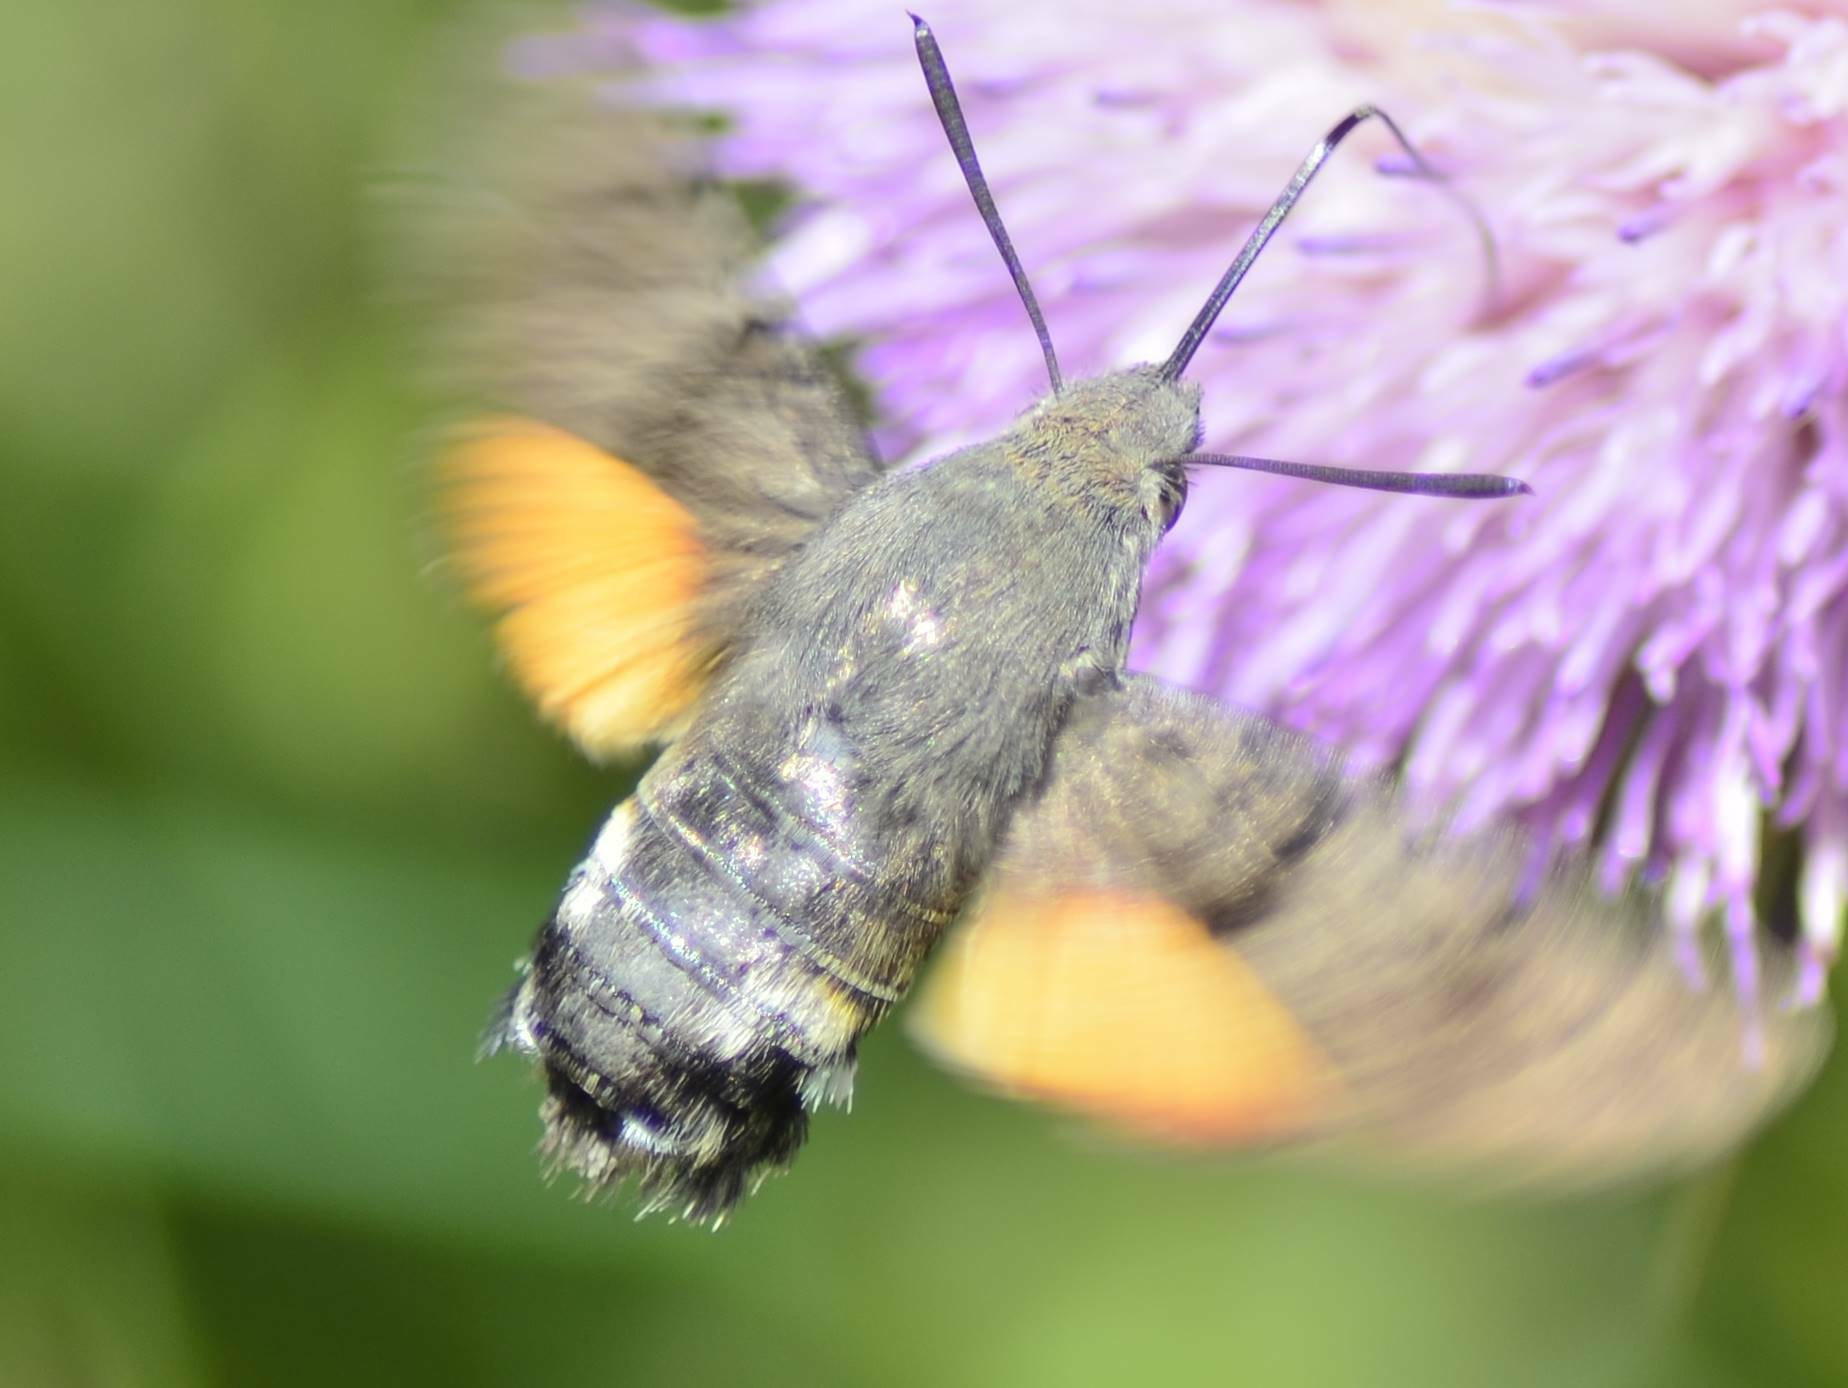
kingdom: Animalia
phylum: Arthropoda
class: Insecta
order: Lepidoptera
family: Sphingidae
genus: Macroglossum
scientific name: Macroglossum stellatarum
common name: Humming-bird hawk-moth
